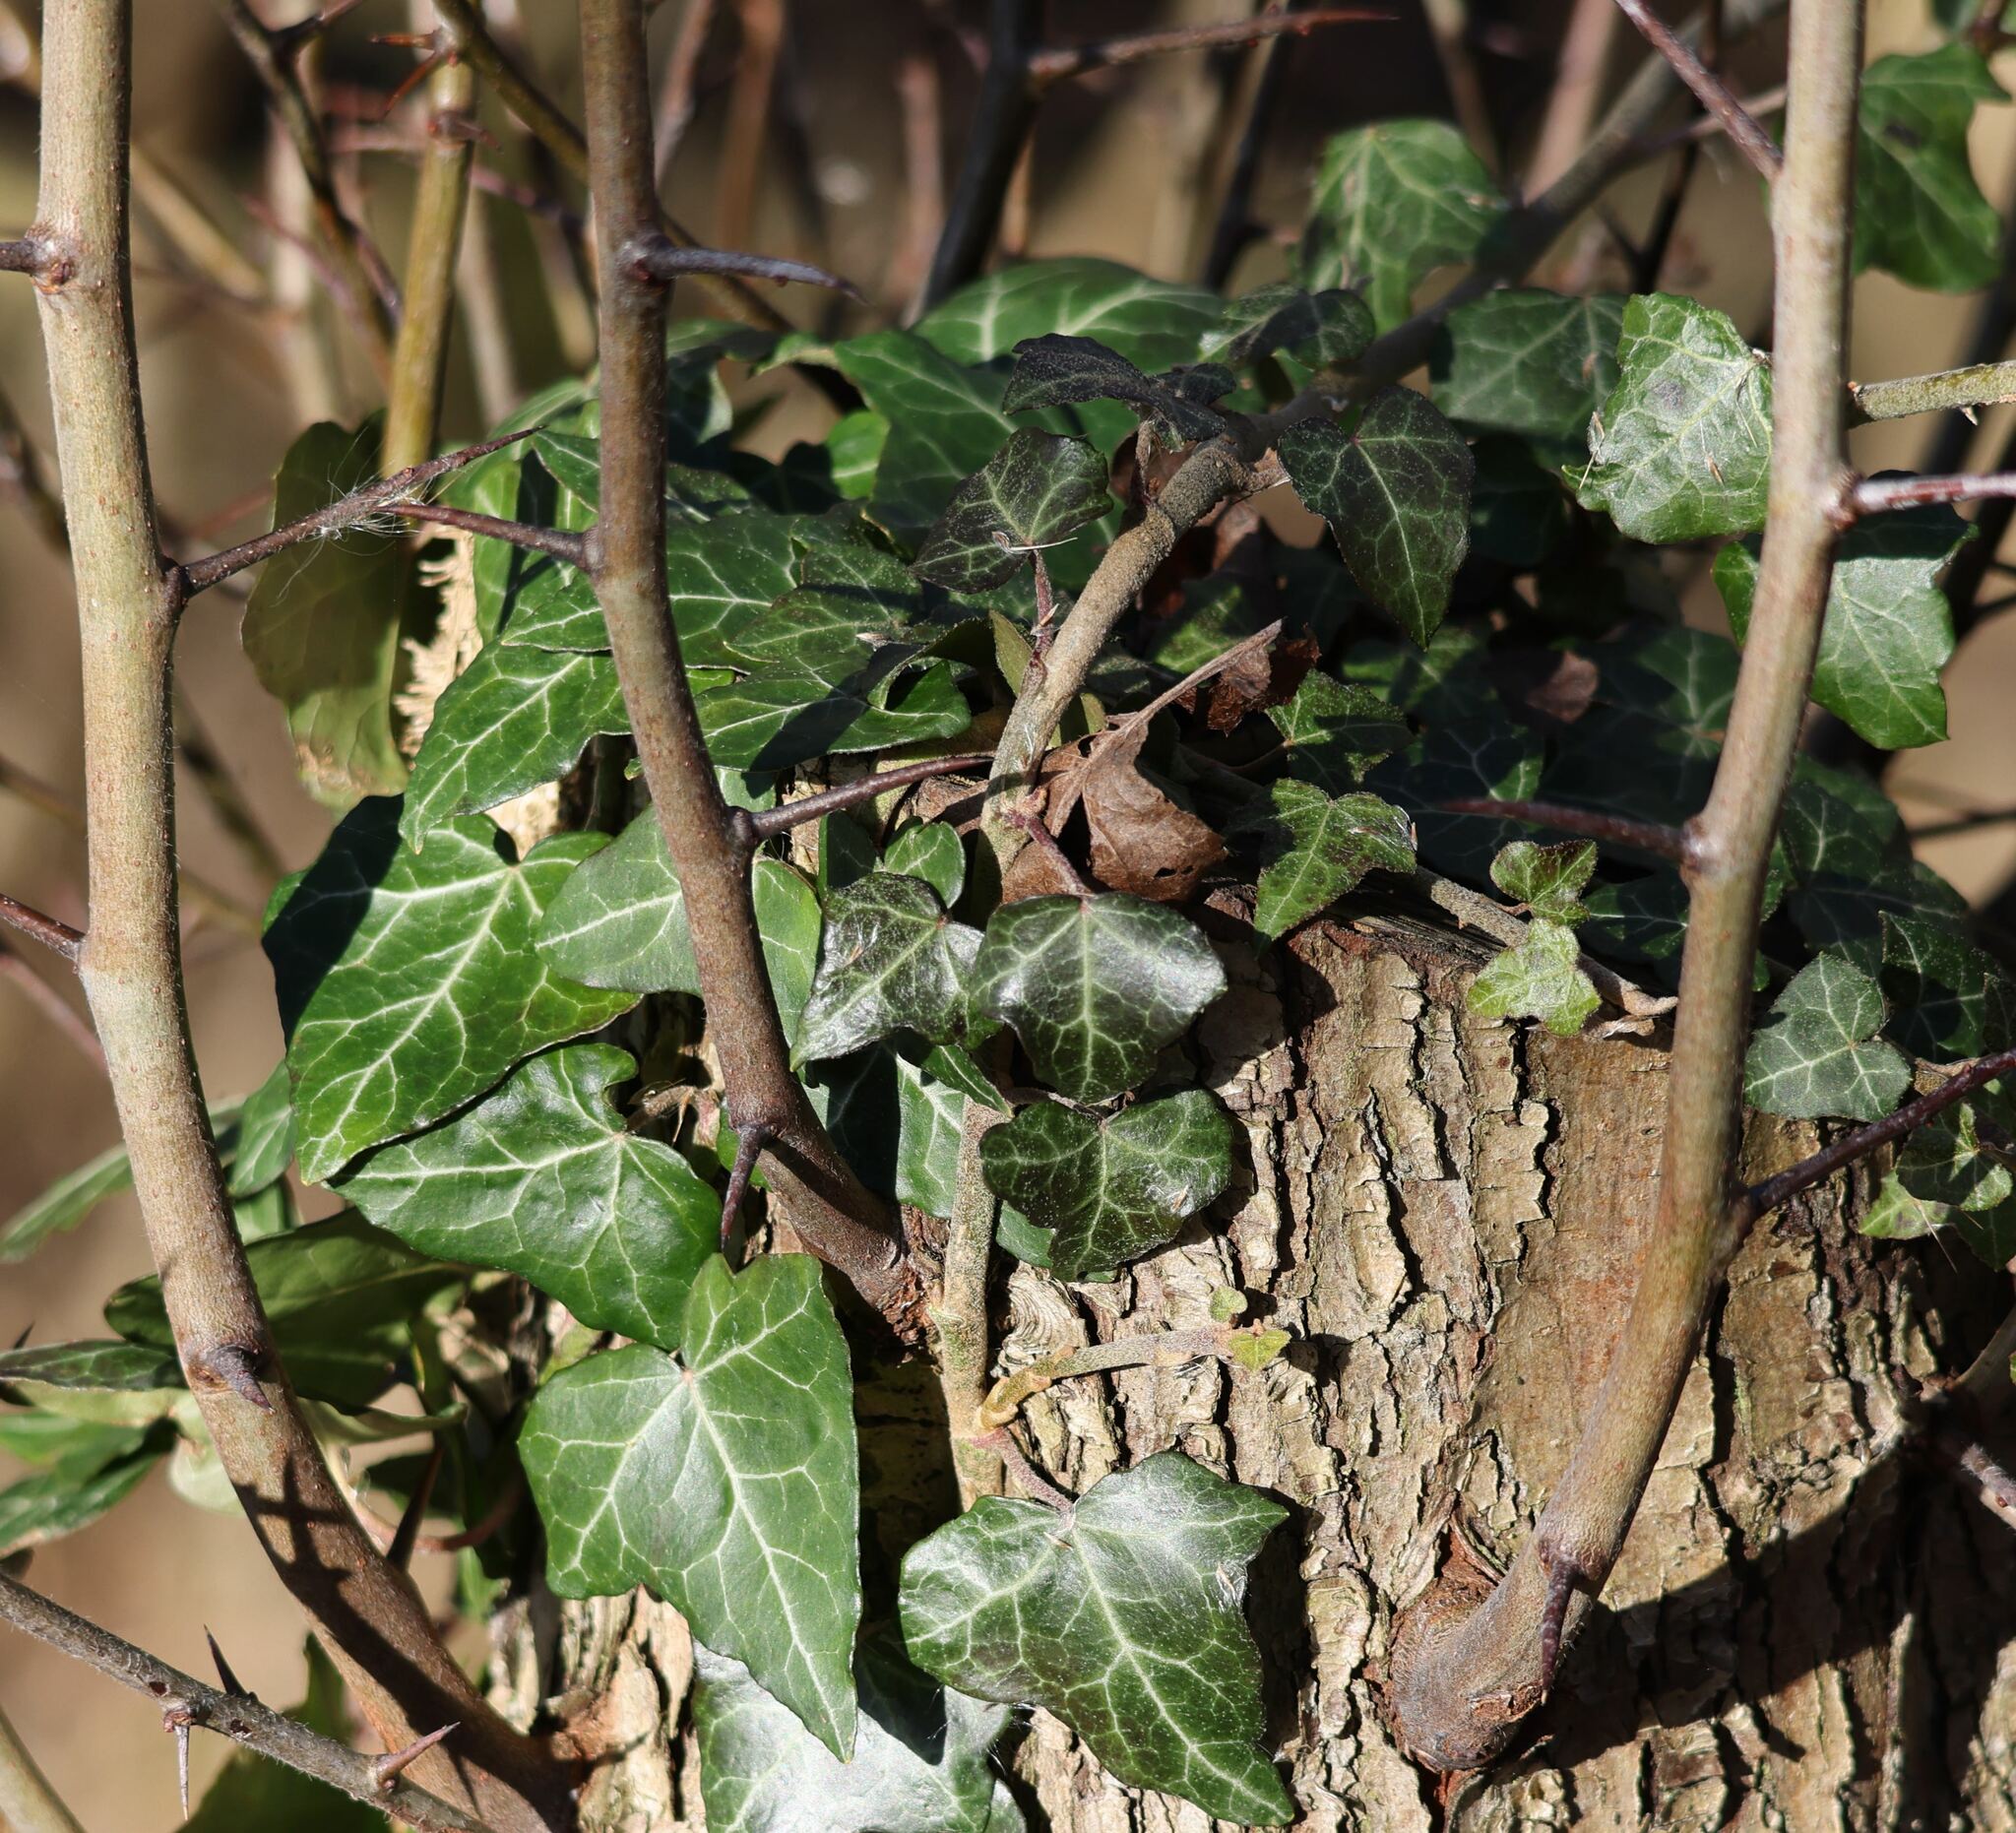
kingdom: Plantae
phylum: Tracheophyta
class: Magnoliopsida
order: Apiales
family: Araliaceae
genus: Hedera
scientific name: Hedera helix
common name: Ivy
